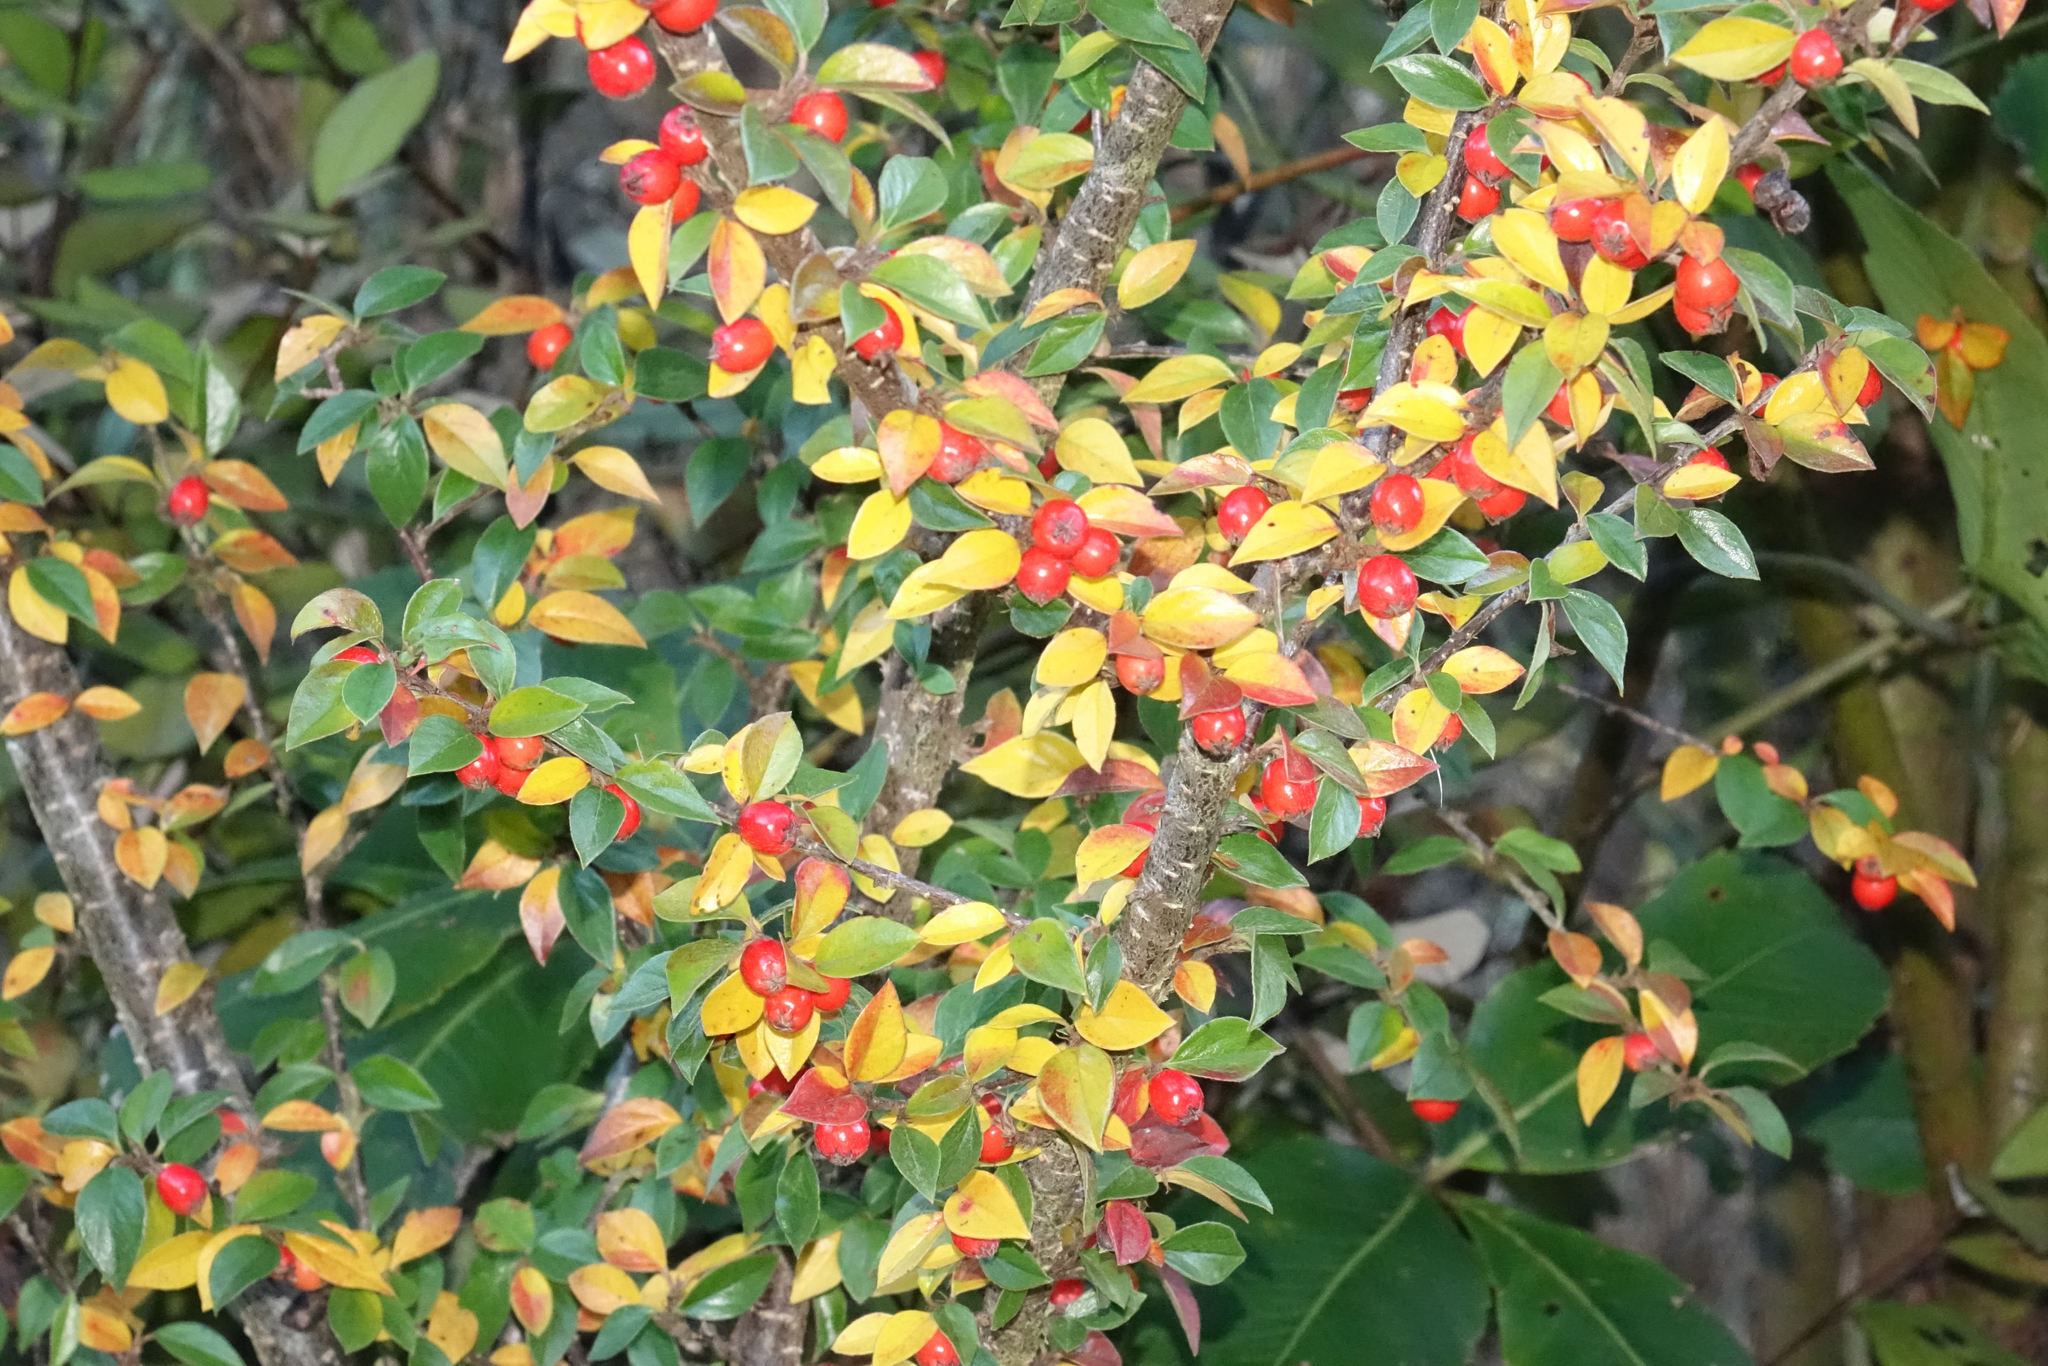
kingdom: Plantae
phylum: Tracheophyta
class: Magnoliopsida
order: Rosales
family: Rosaceae
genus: Cotoneaster
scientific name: Cotoneaster simonsii
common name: Himalayan cotoneaster
